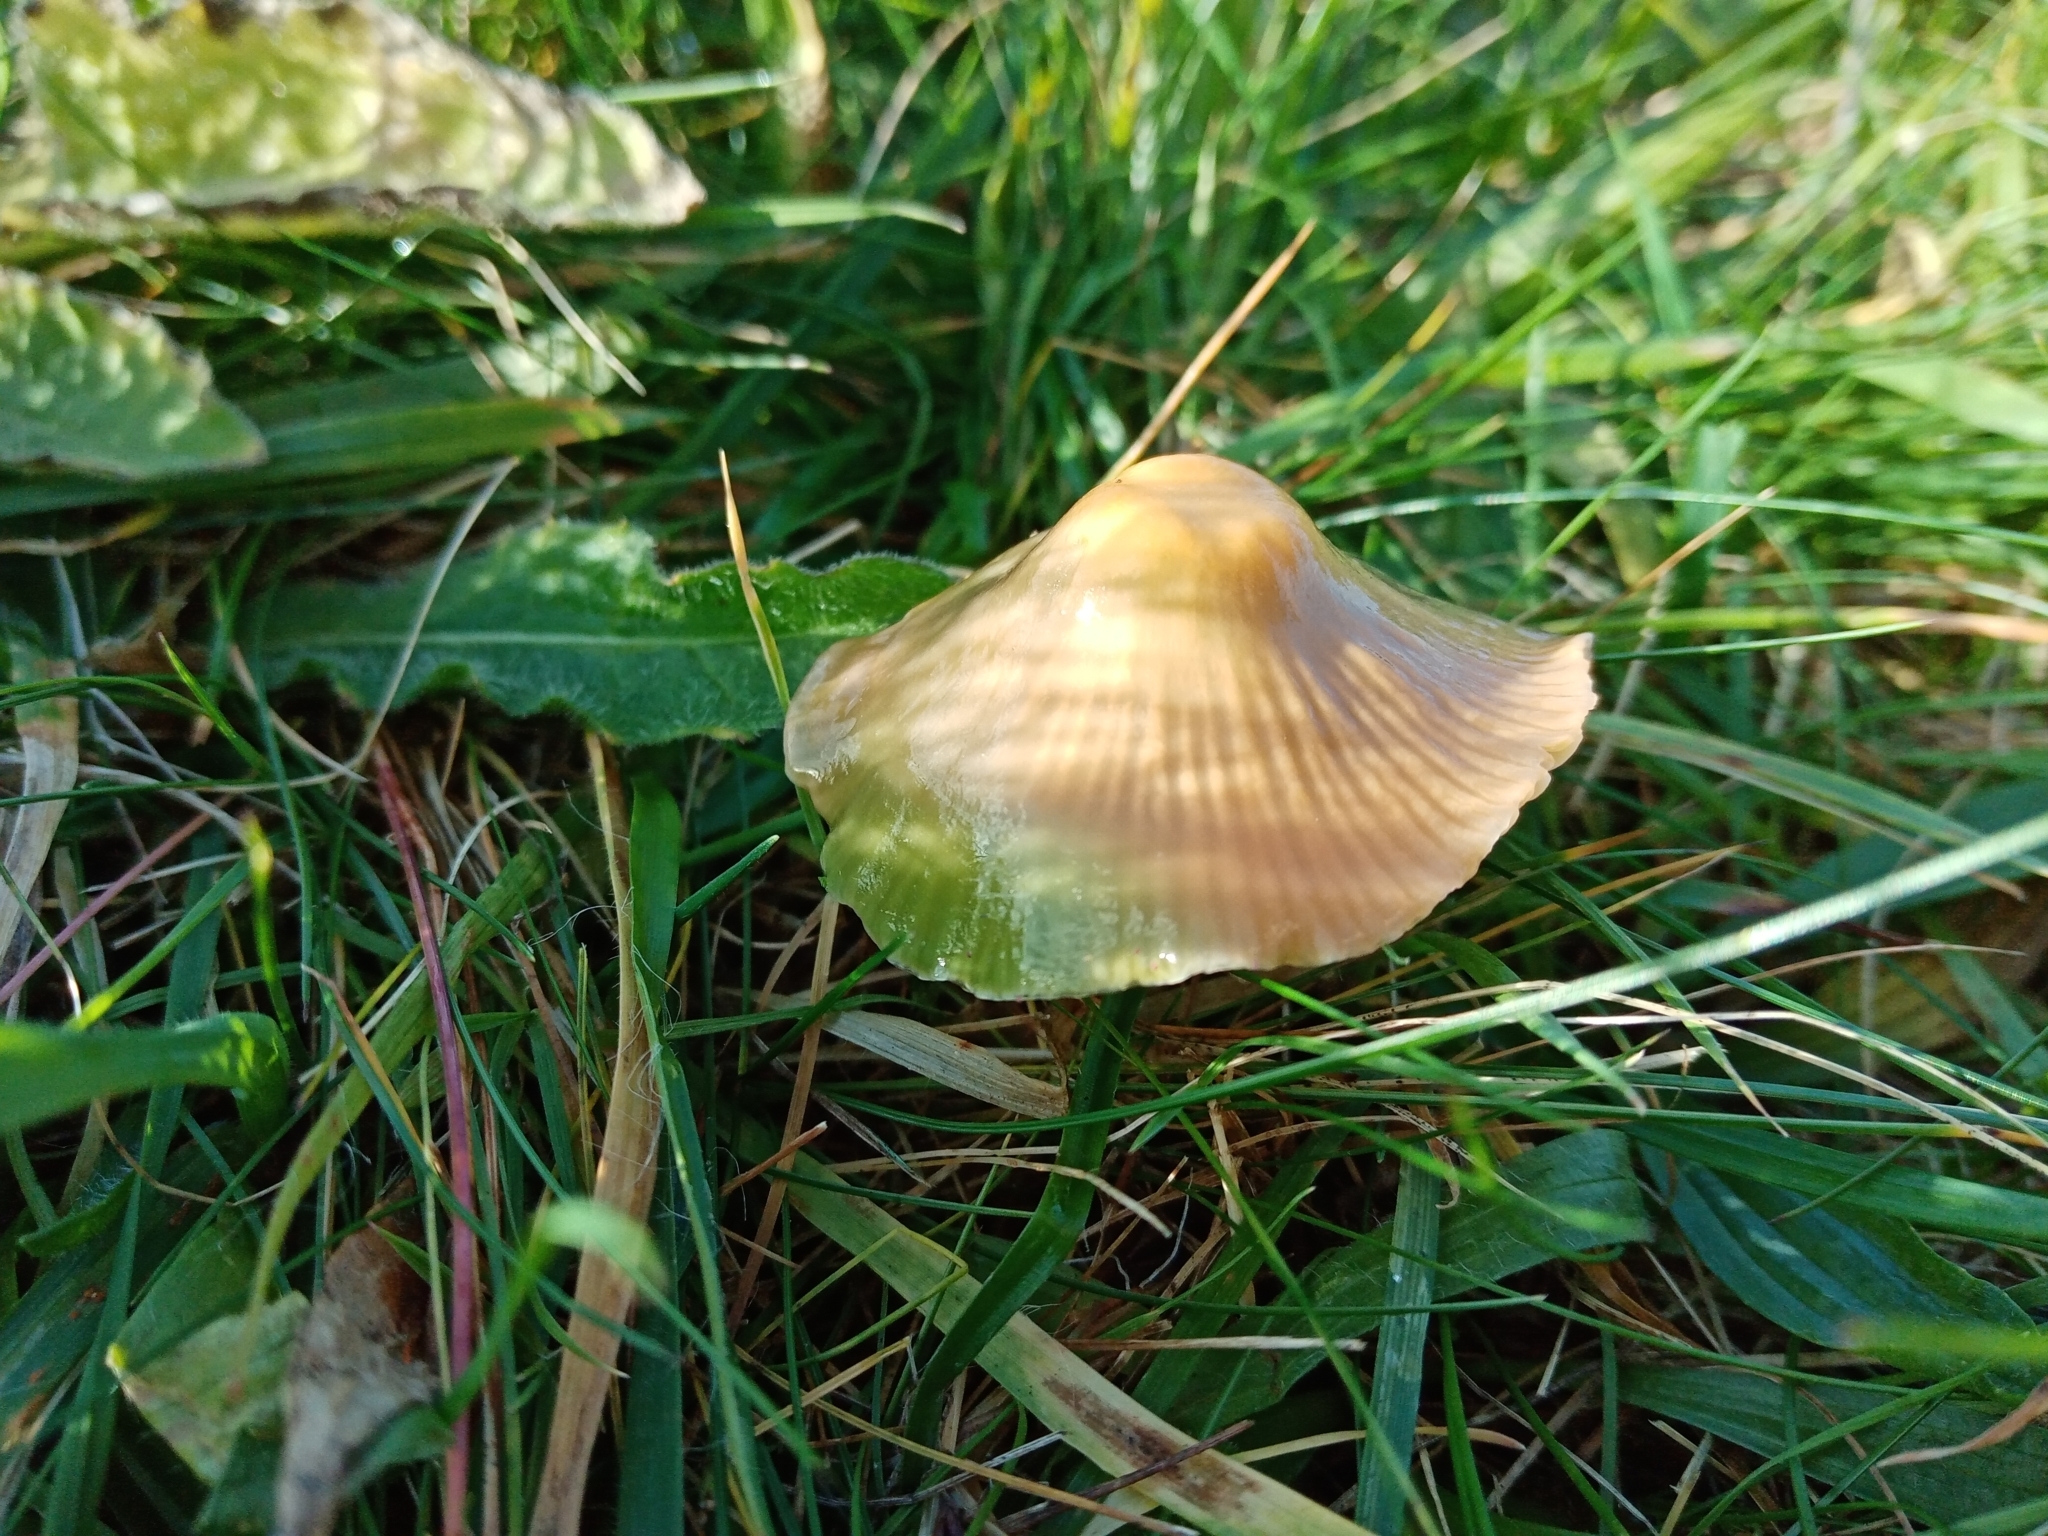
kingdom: Fungi
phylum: Basidiomycota
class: Agaricomycetes
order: Agaricales
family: Hygrophoraceae
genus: Gliophorus
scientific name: Gliophorus psittacinus
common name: Parrot wax-cap
